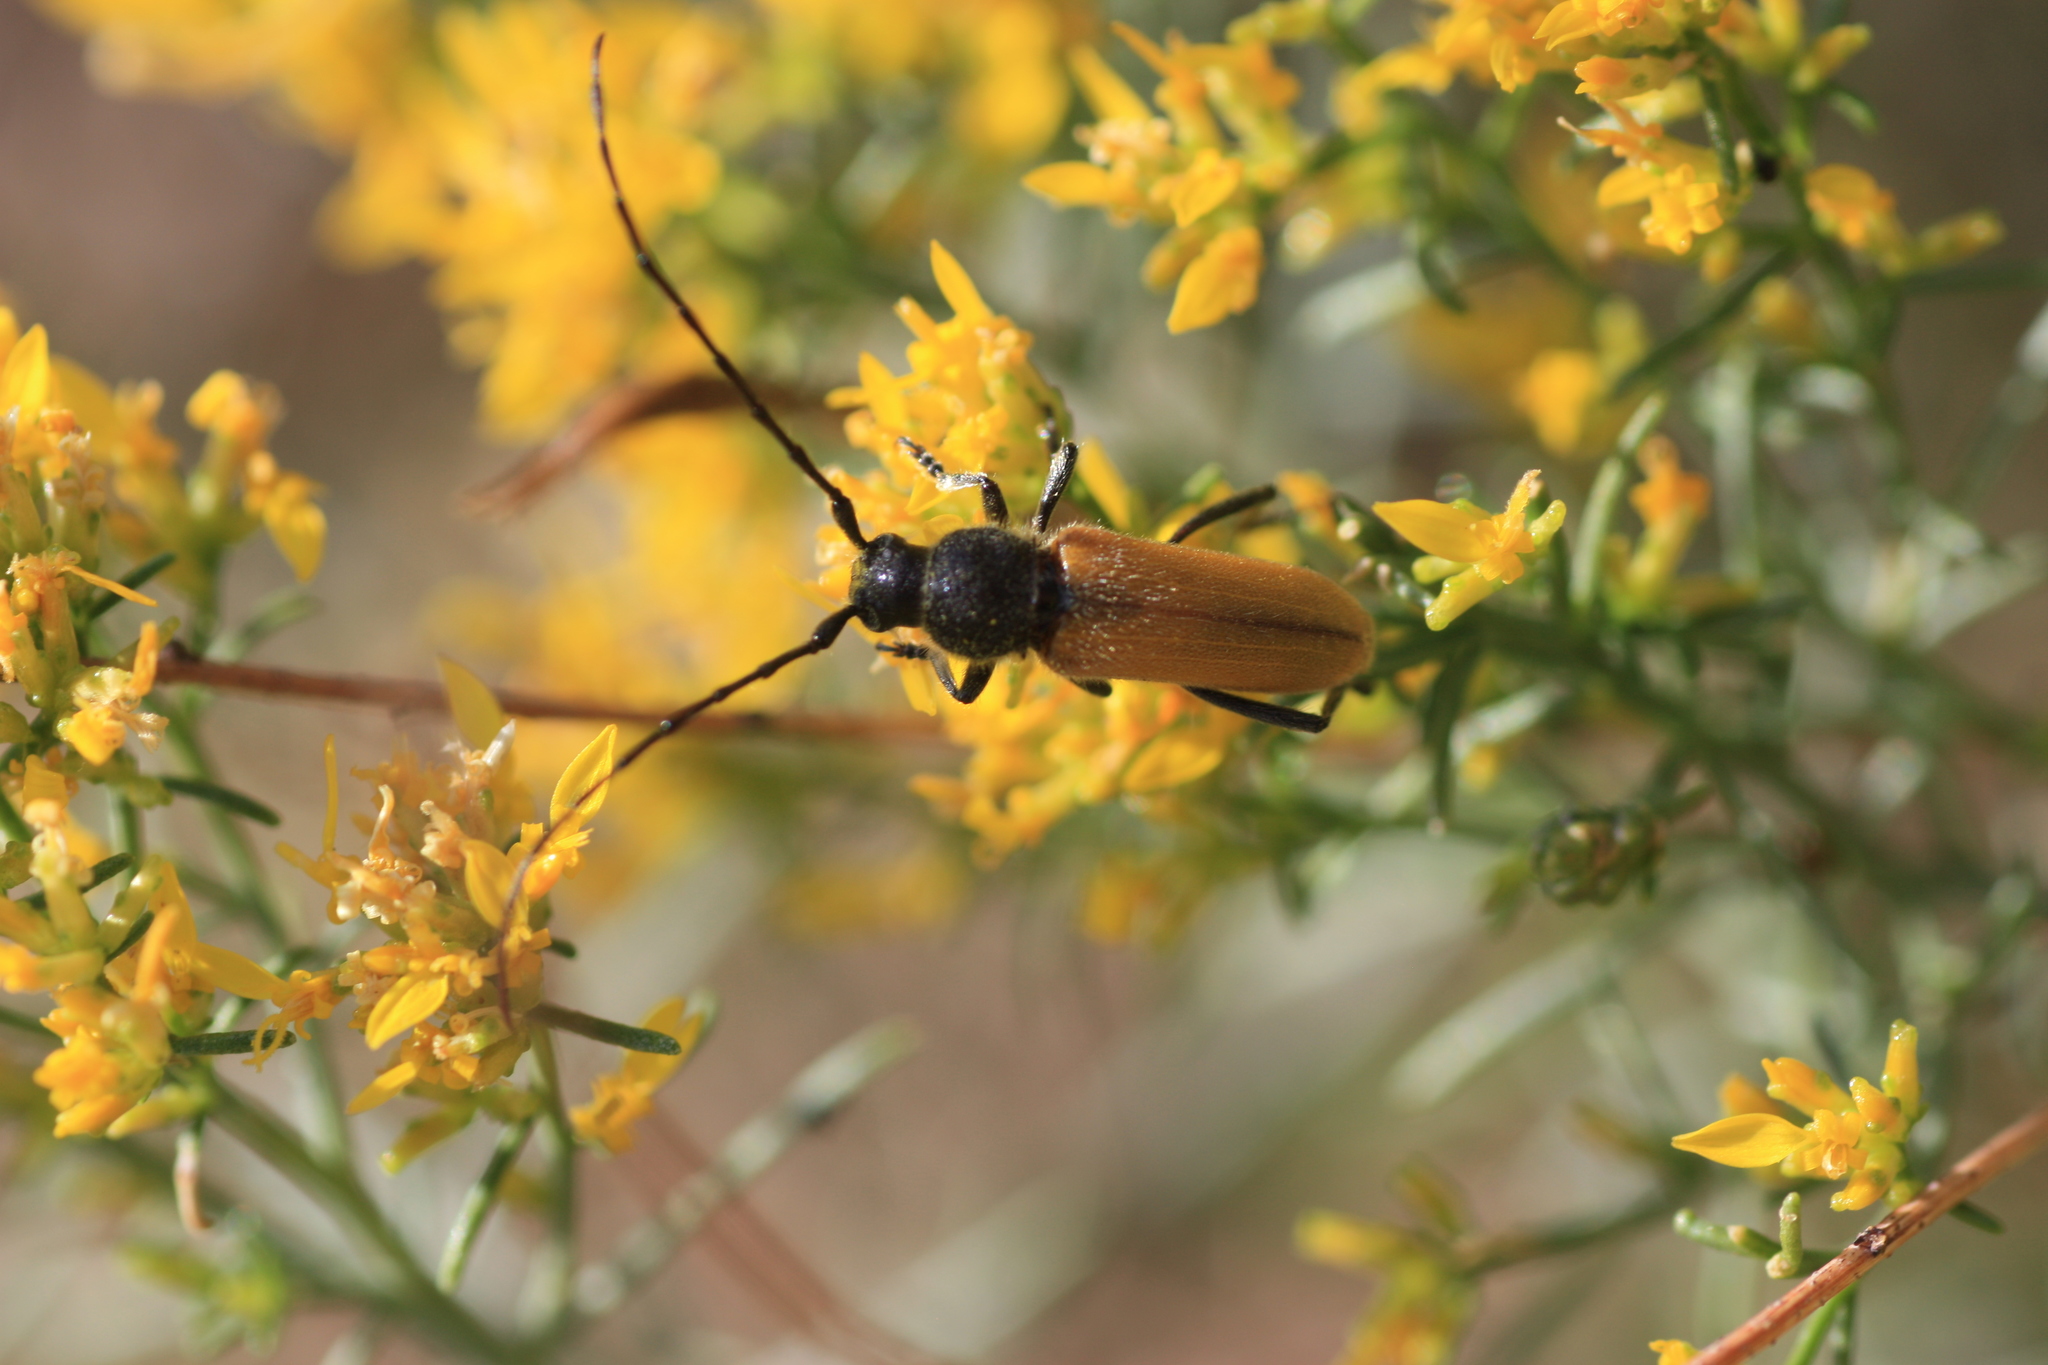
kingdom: Animalia
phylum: Arthropoda
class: Insecta
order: Coleoptera
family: Cerambycidae
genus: Crossidius
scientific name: Crossidius pulchellus
